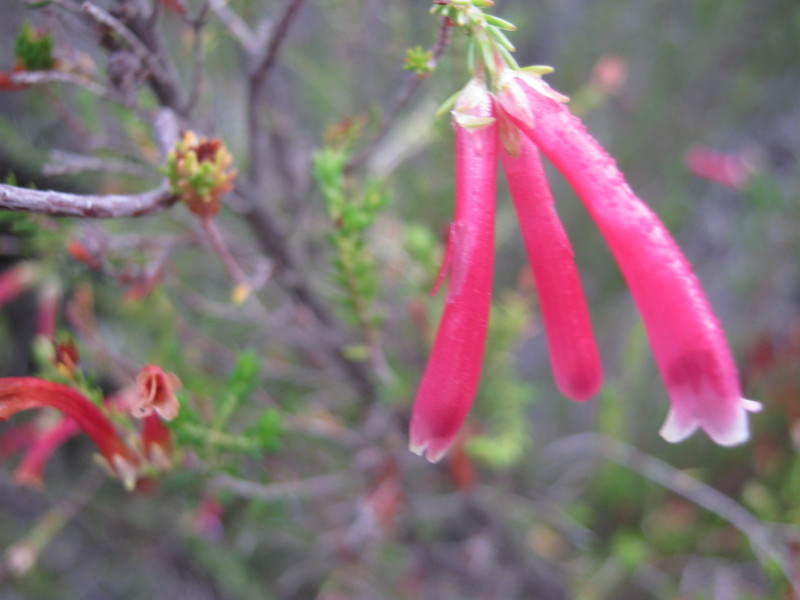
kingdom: Plantae
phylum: Tracheophyta
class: Magnoliopsida
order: Ericales
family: Ericaceae
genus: Erica
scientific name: Erica discolor
